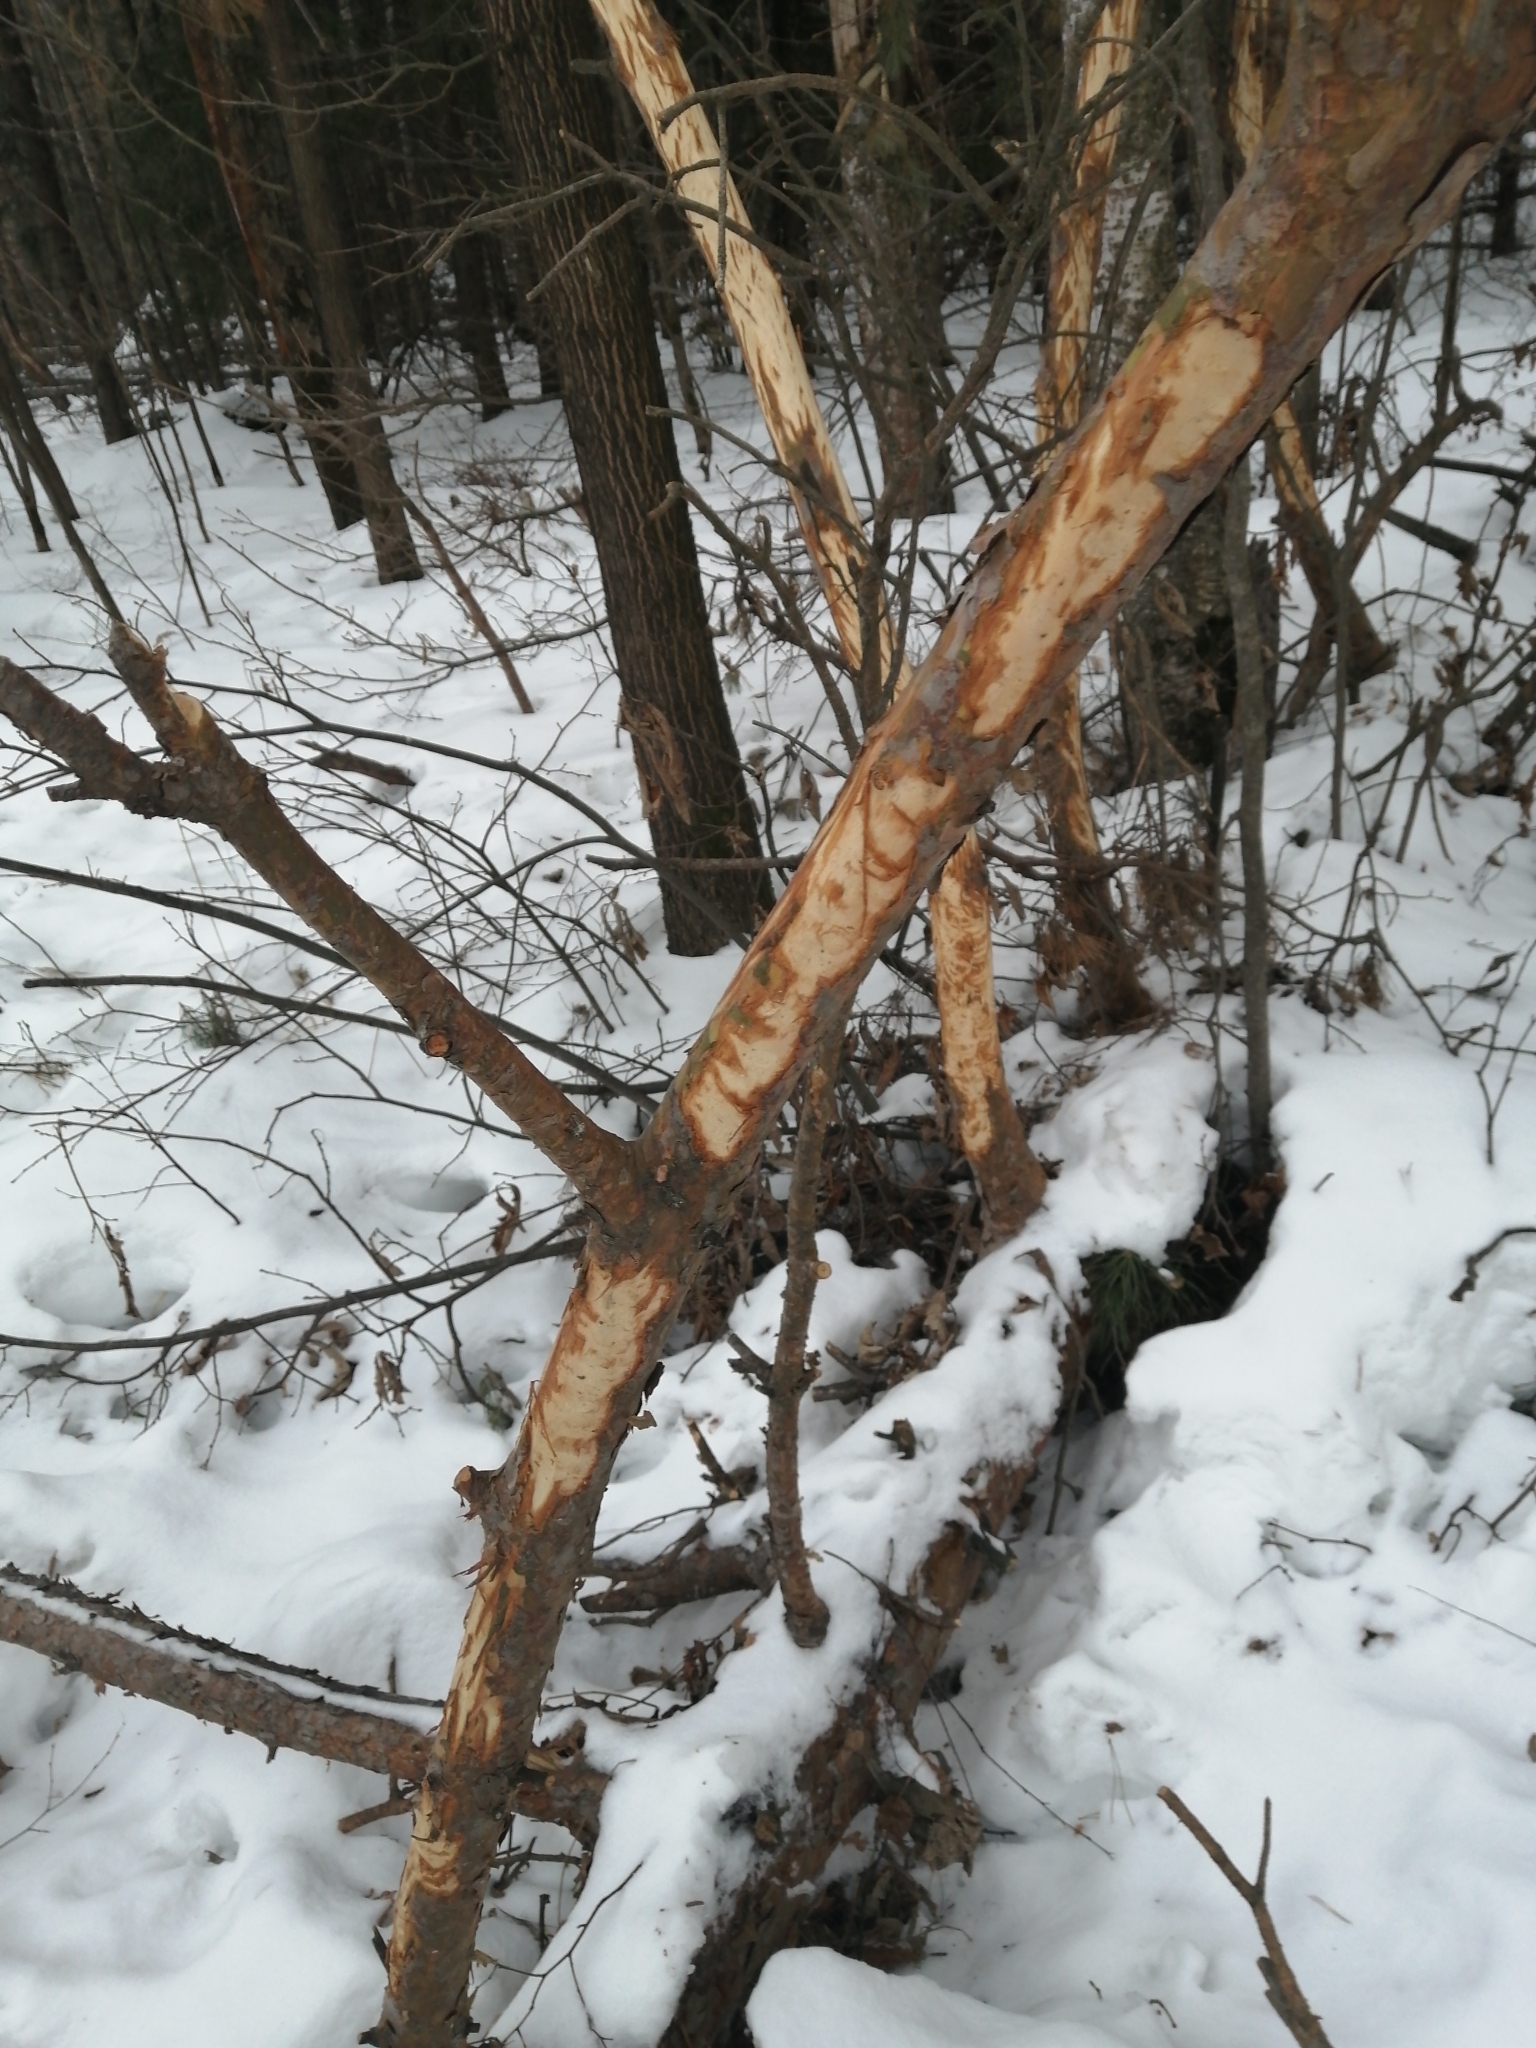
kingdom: Animalia
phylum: Chordata
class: Mammalia
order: Artiodactyla
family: Cervidae
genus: Alces
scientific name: Alces alces
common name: Moose
